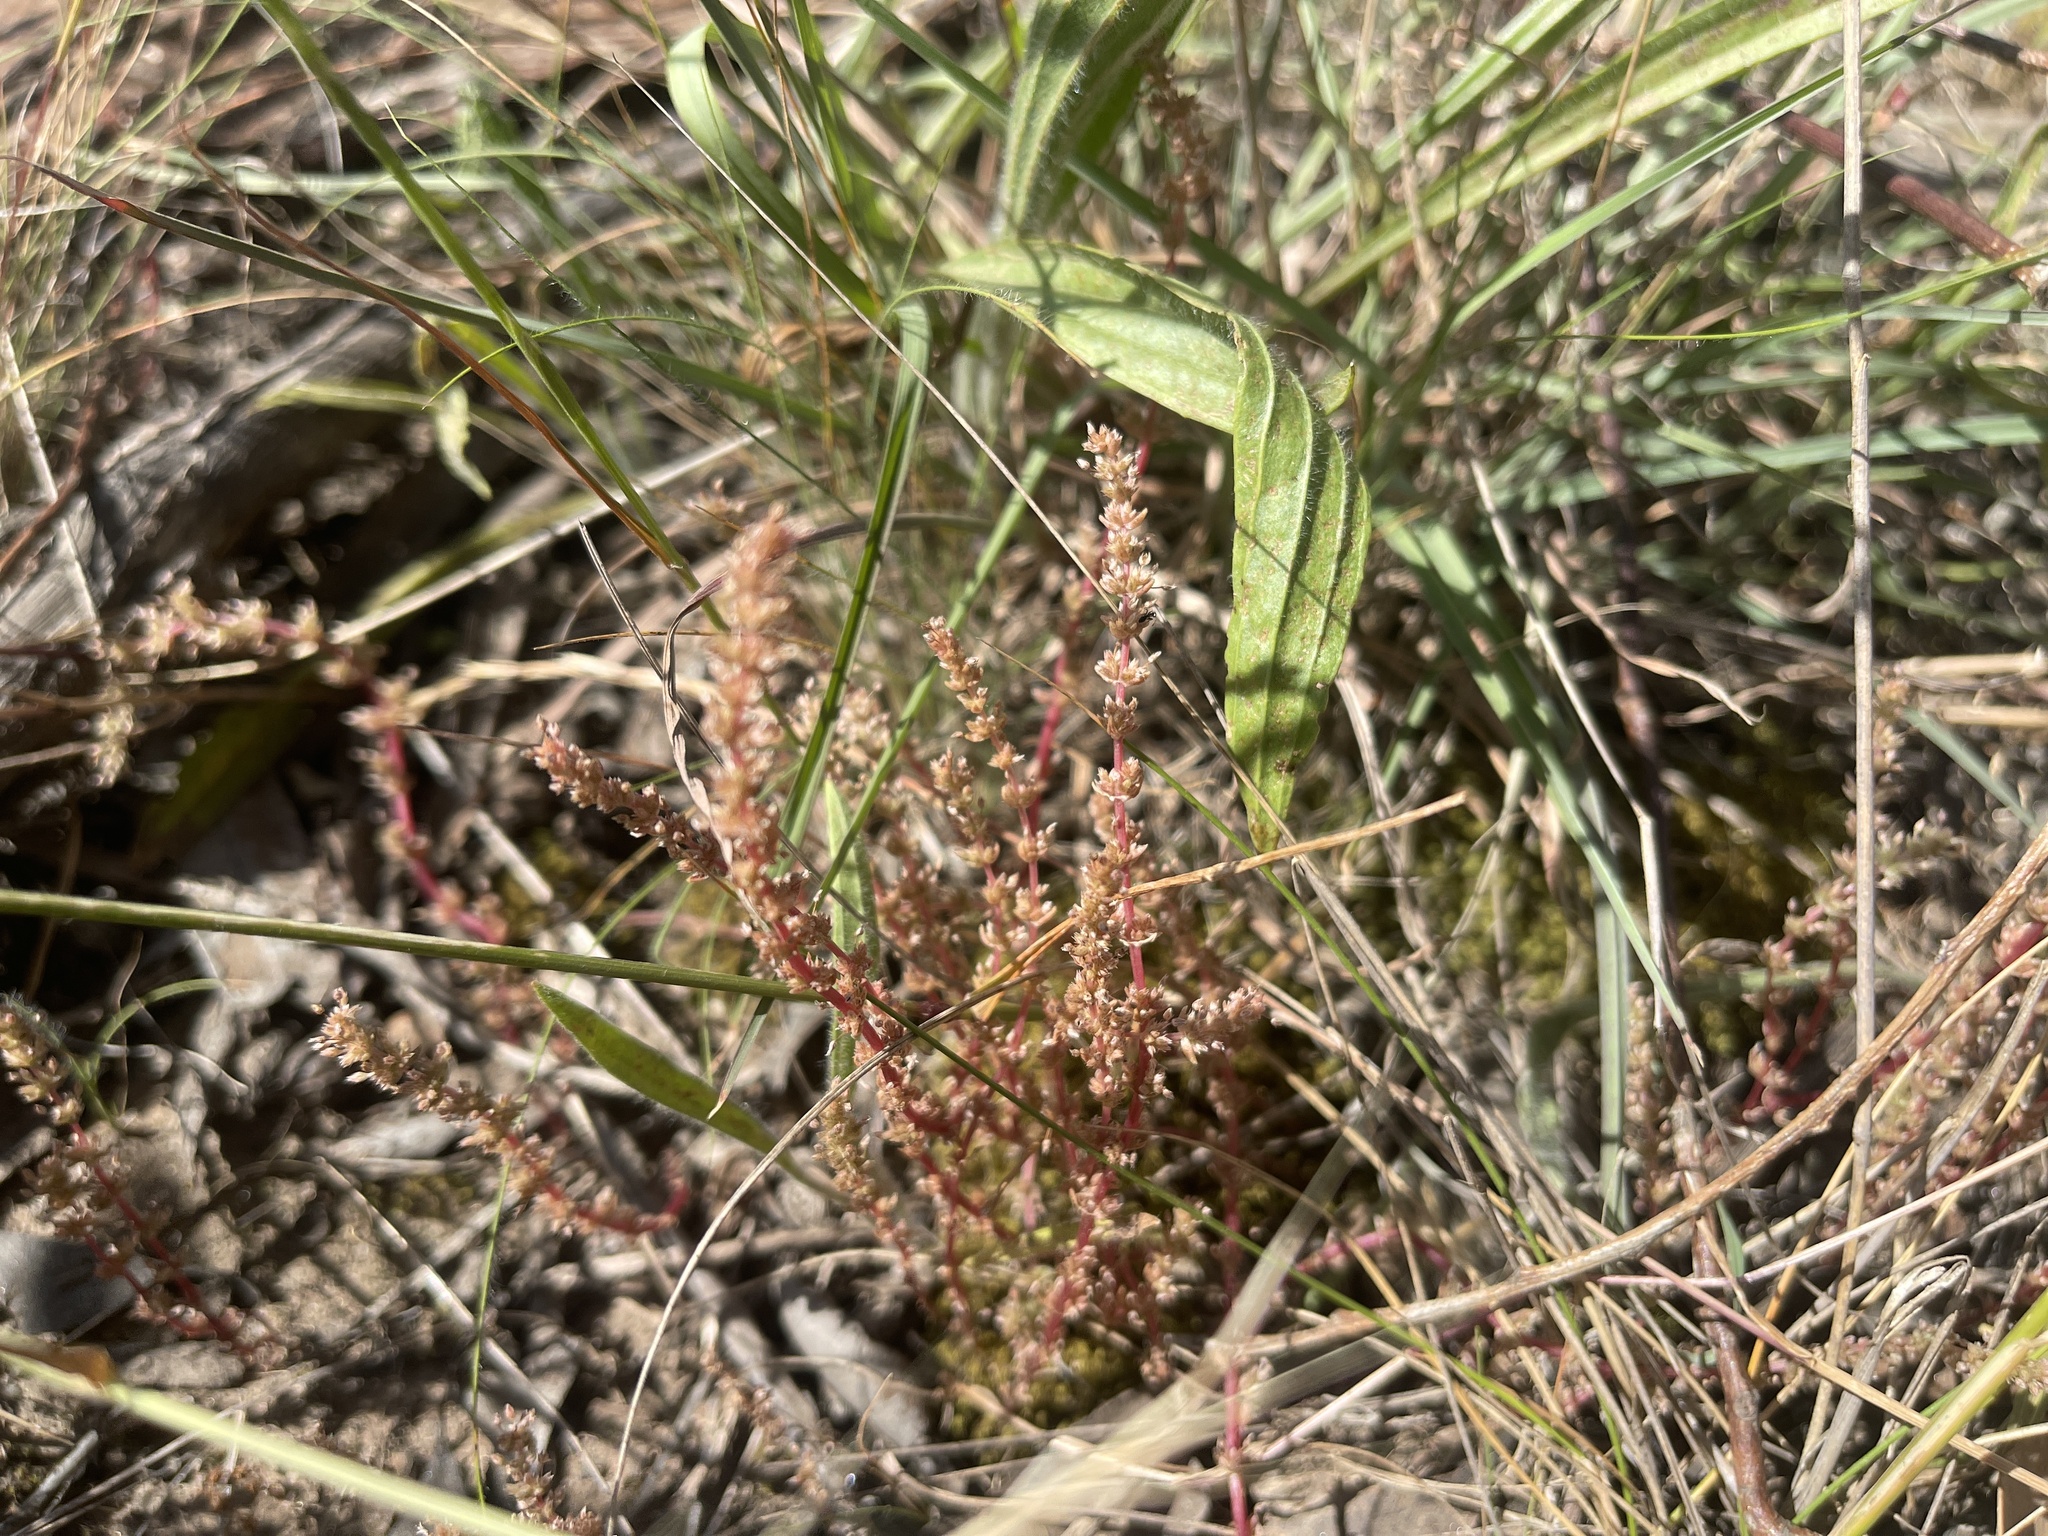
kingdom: Plantae
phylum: Tracheophyta
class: Magnoliopsida
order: Saxifragales
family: Crassulaceae
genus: Crassula
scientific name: Crassula sieberiana
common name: Siberian pygmyweed
